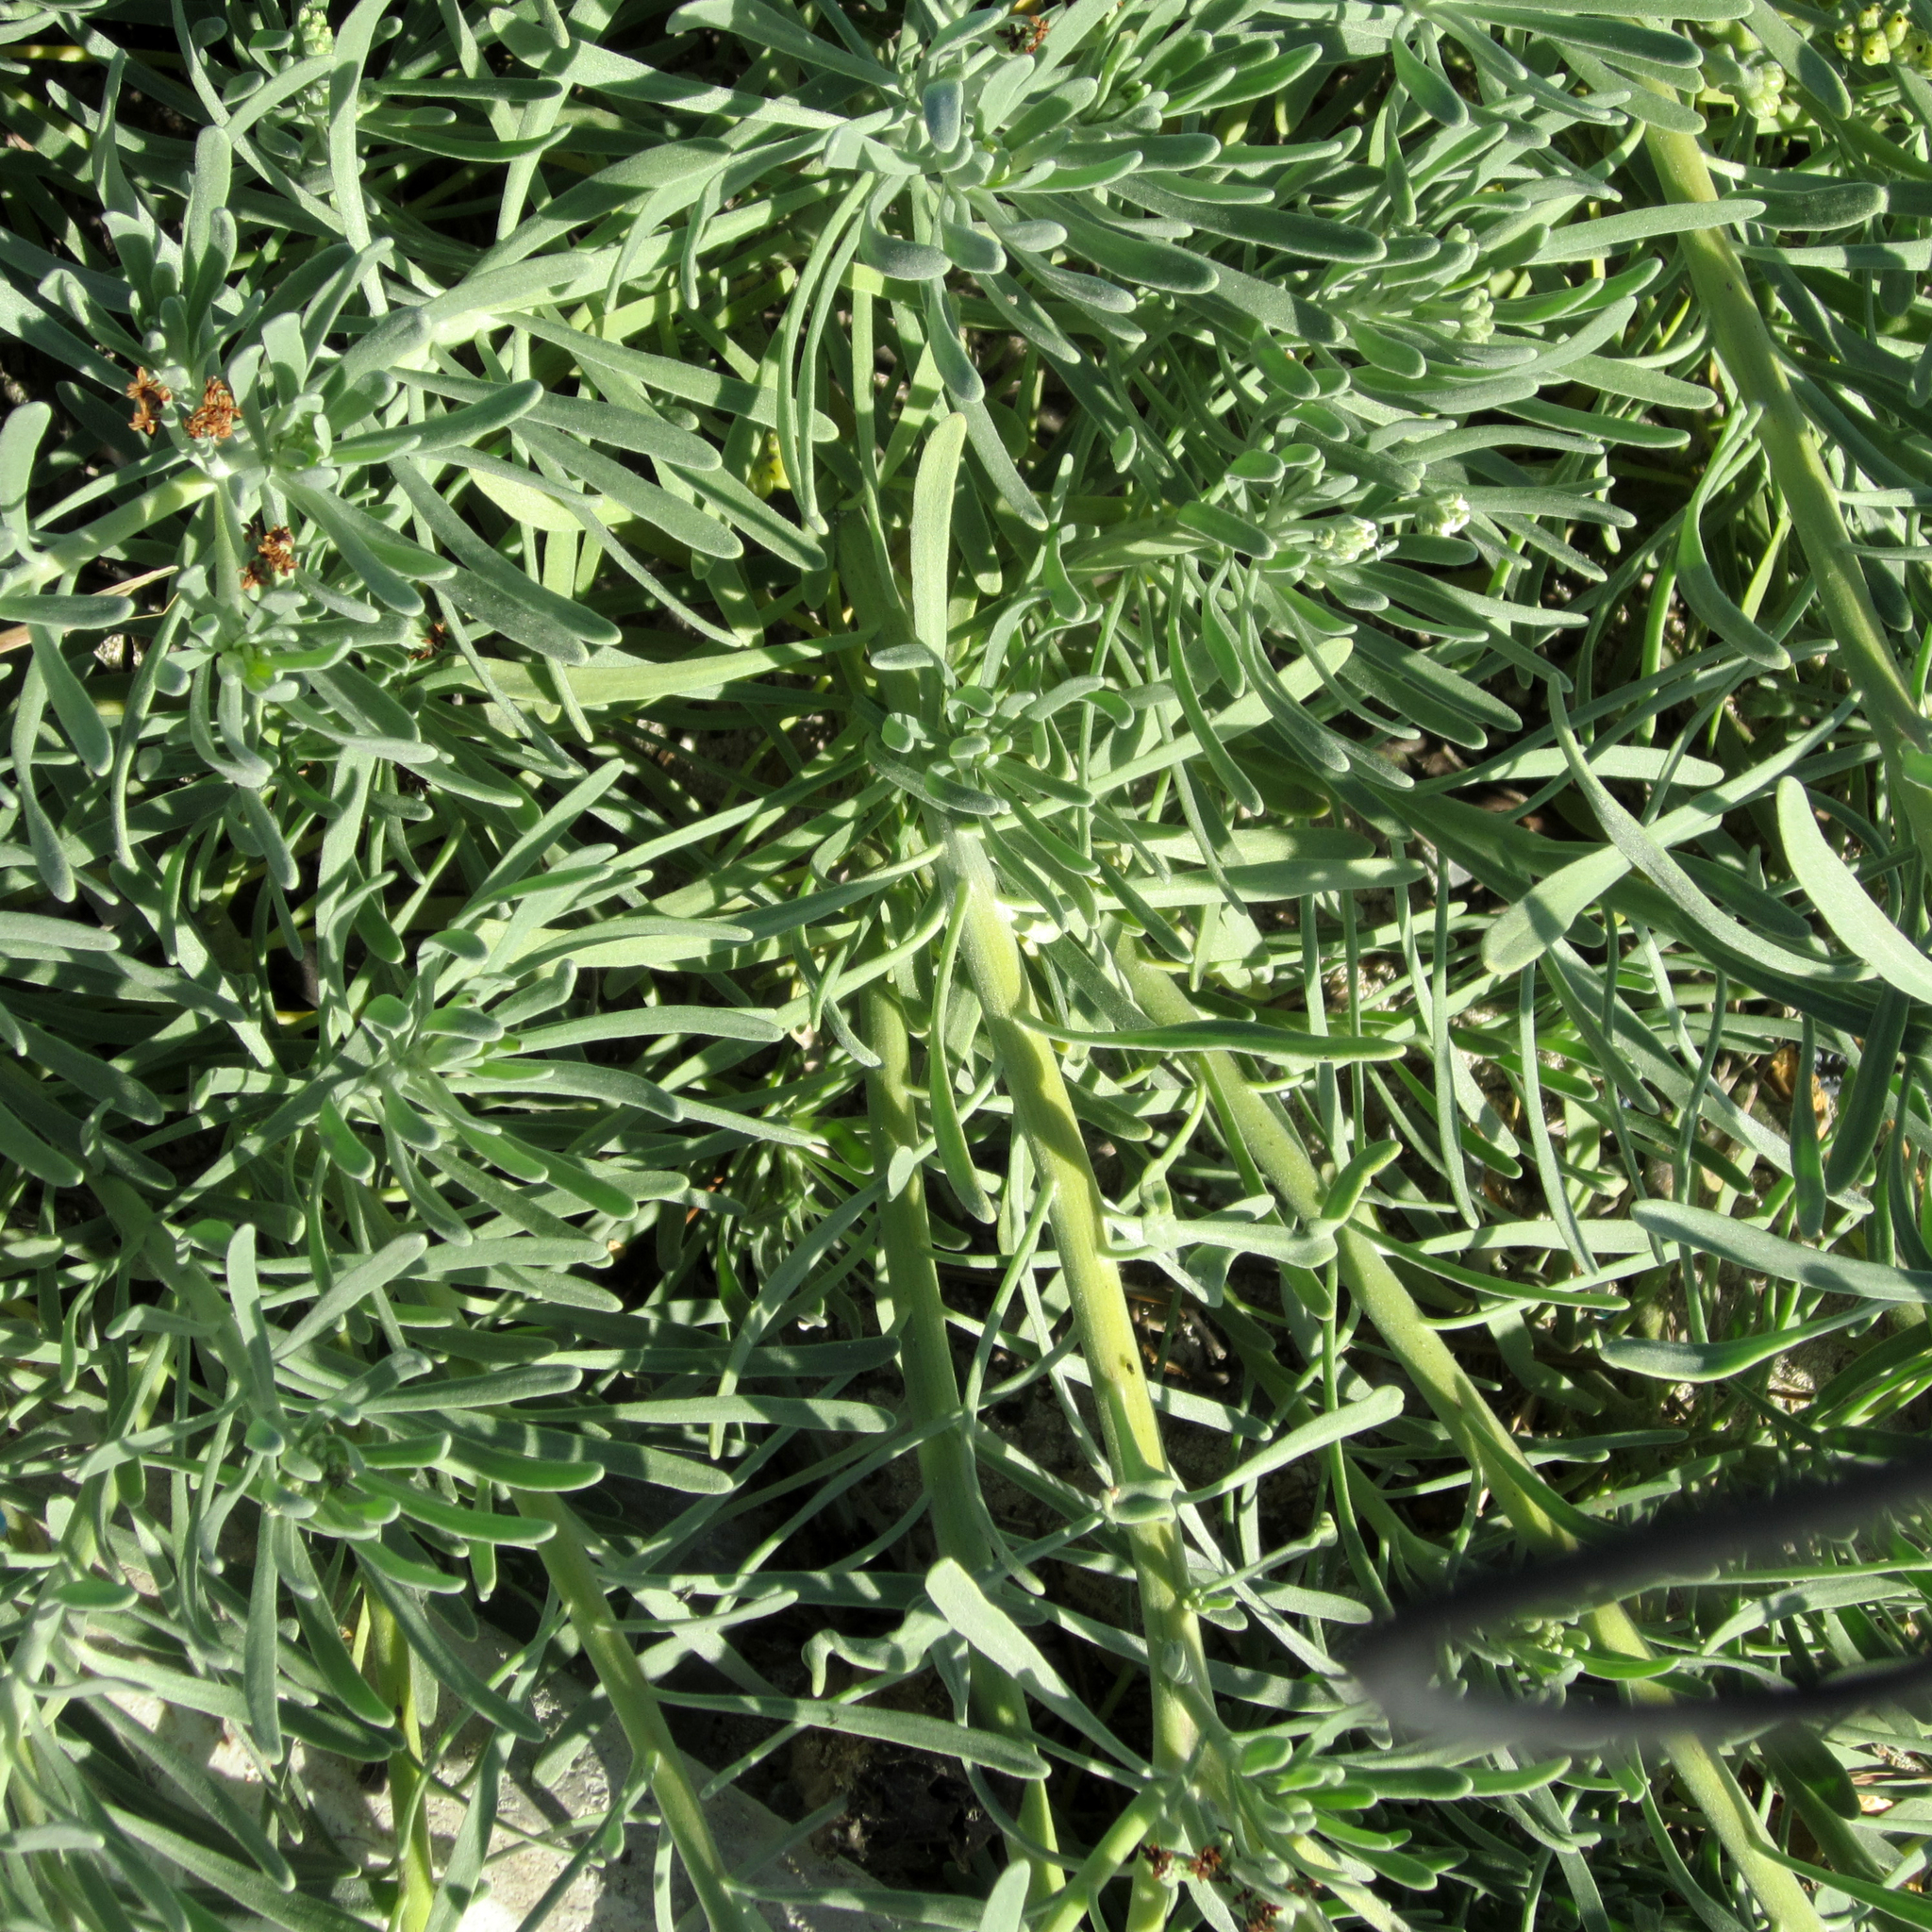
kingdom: Plantae
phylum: Tracheophyta
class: Magnoliopsida
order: Boraginales
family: Heliotropiaceae
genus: Tournefortia
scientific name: Tournefortia gnaphalodes
